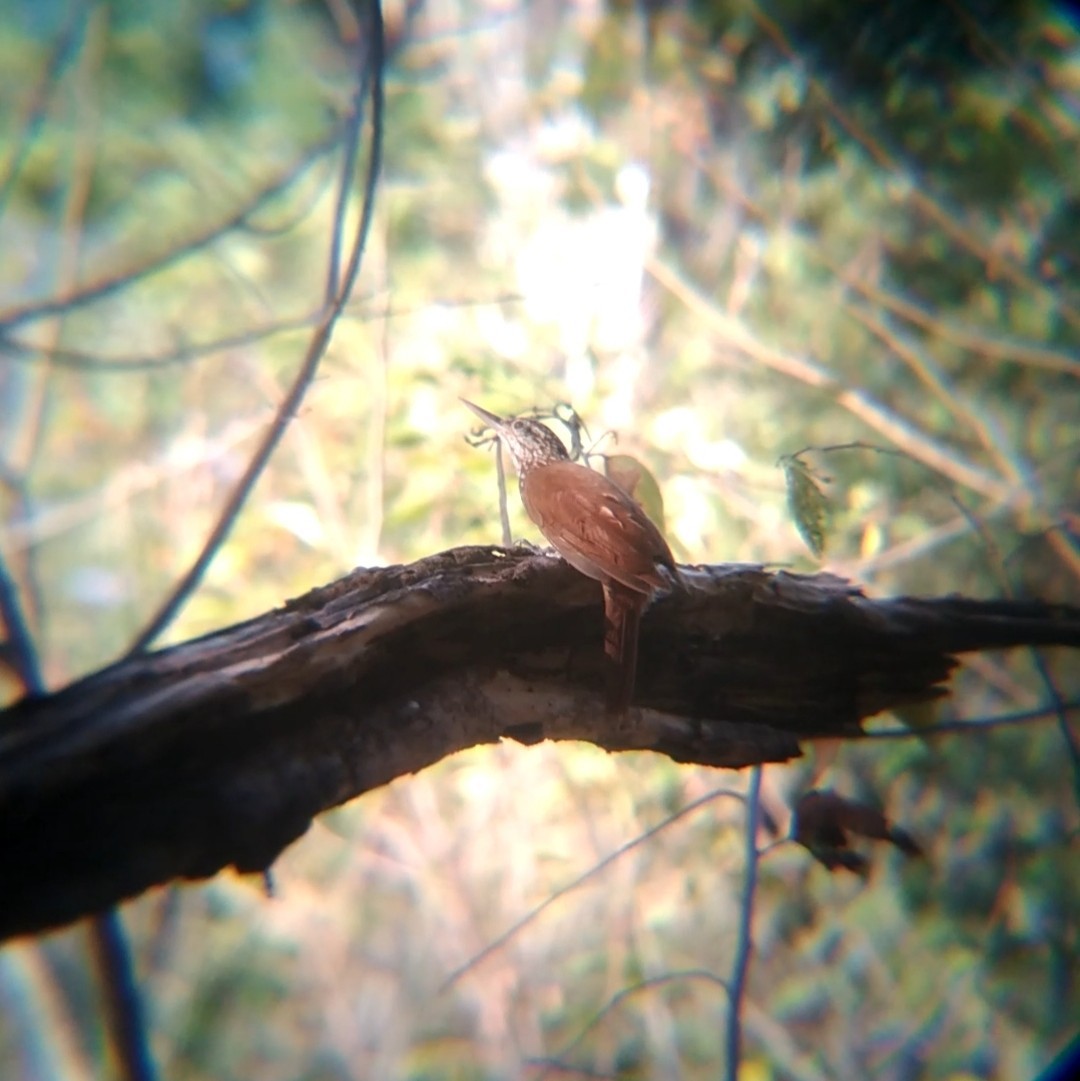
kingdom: Animalia
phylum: Chordata
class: Aves
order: Passeriformes
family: Furnariidae
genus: Xiphorhynchus
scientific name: Xiphorhynchus picus
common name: Straight-billed woodcreeper
